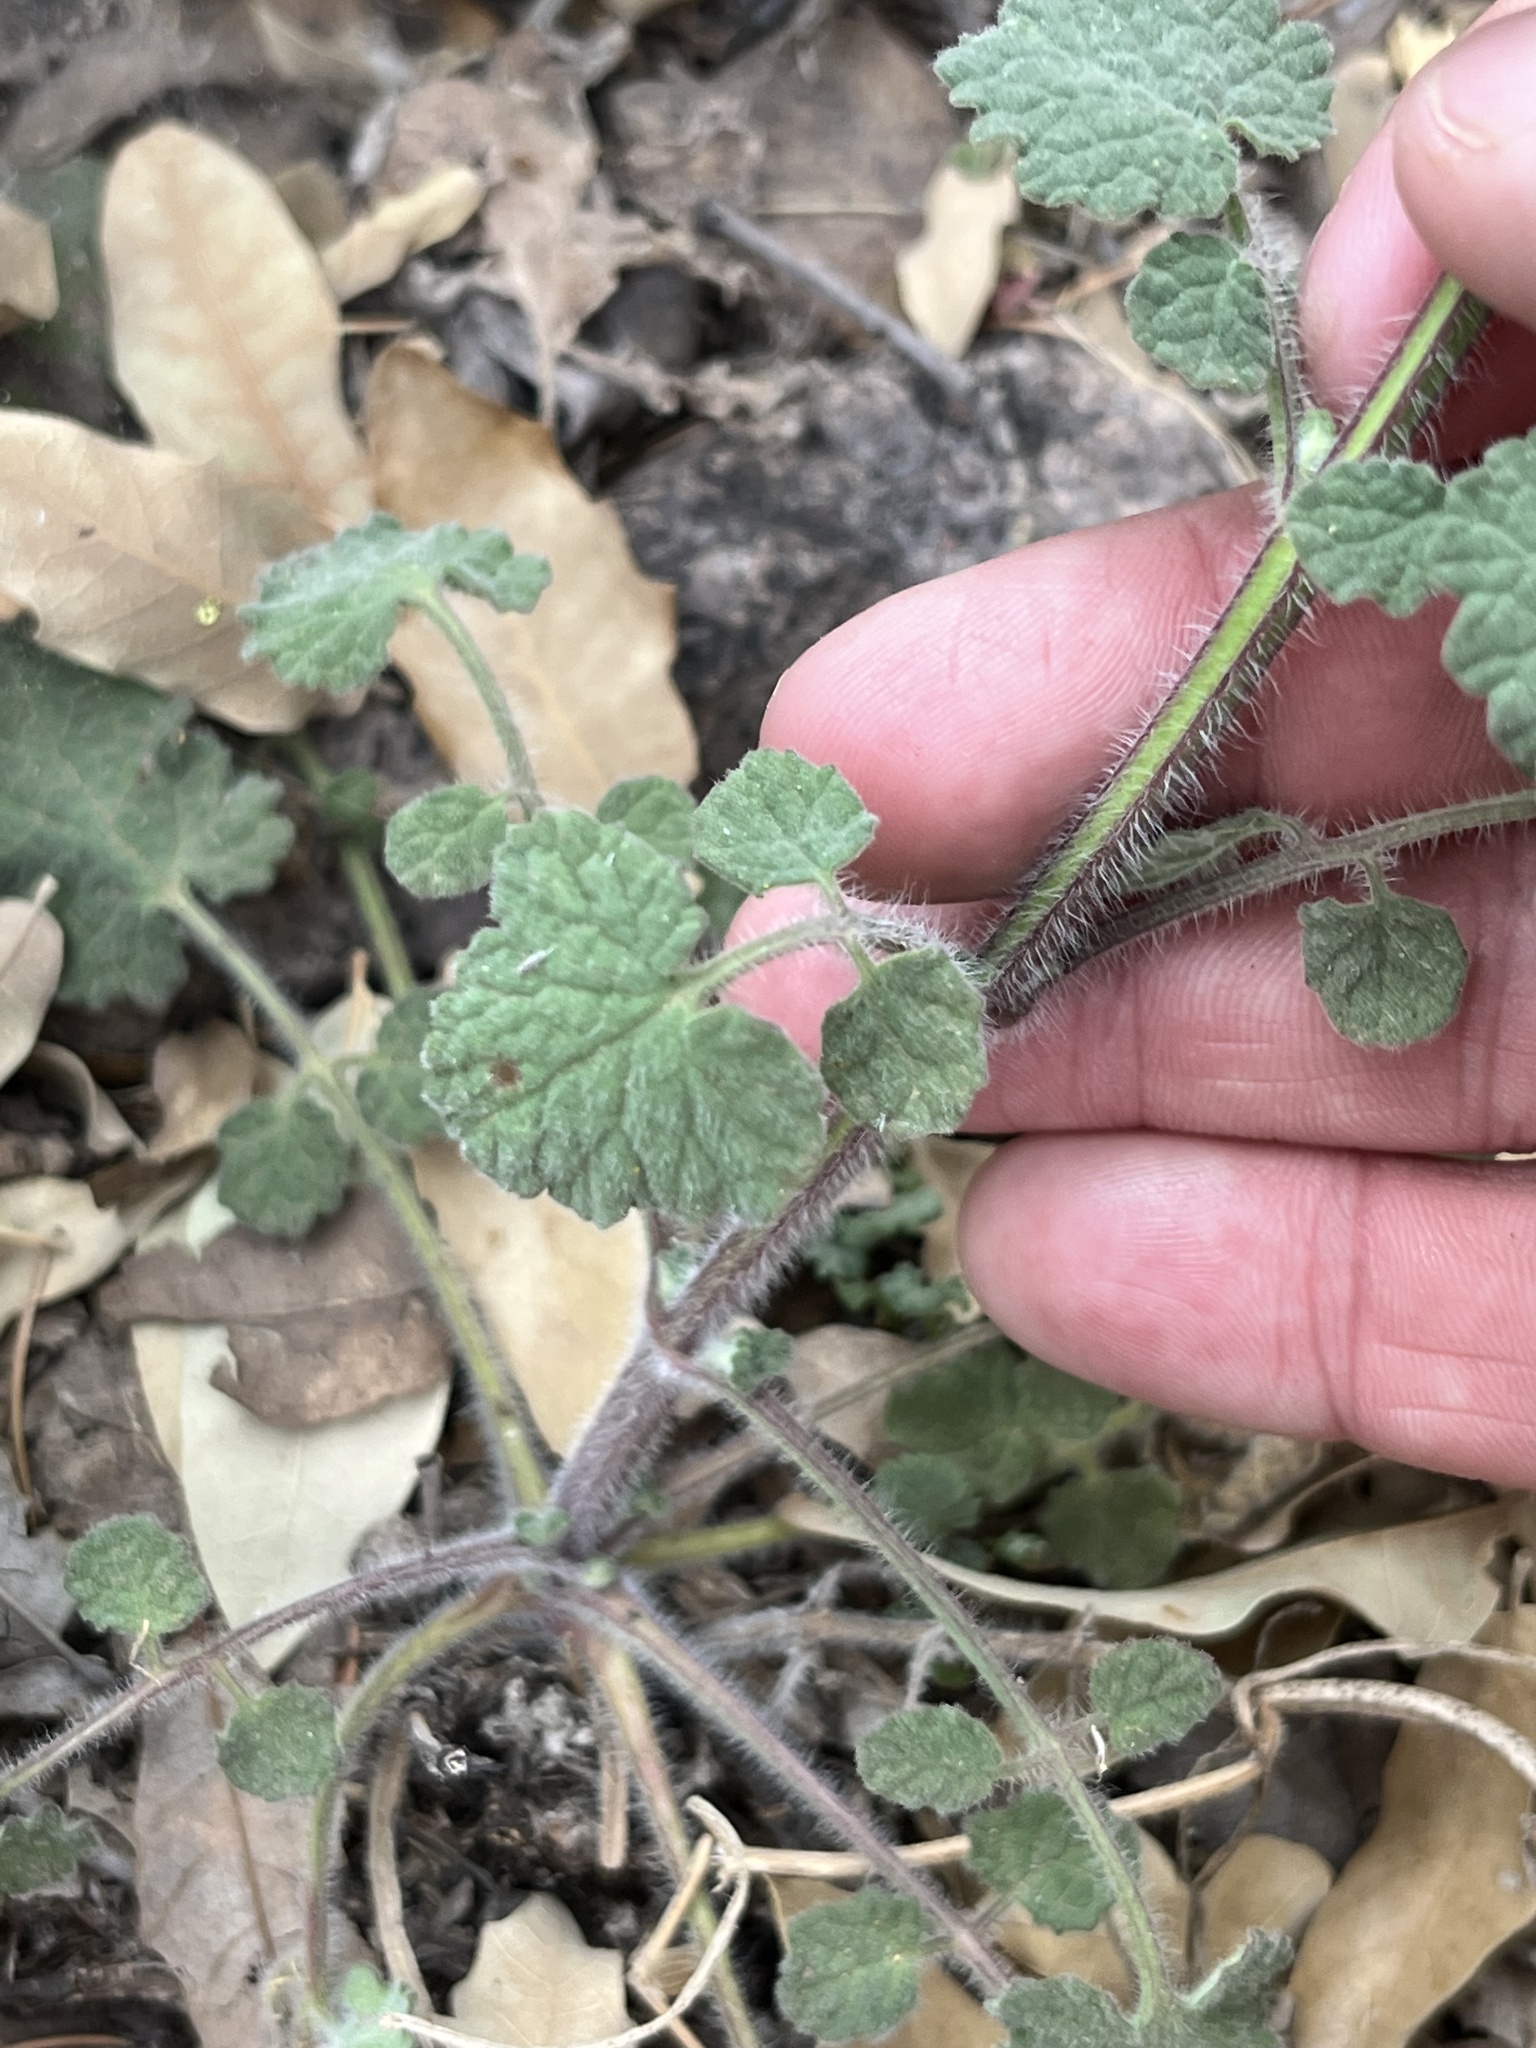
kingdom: Plantae
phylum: Tracheophyta
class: Magnoliopsida
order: Lamiales
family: Lamiaceae
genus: Salvia
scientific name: Salvia roemeriana
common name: Cedar sage
